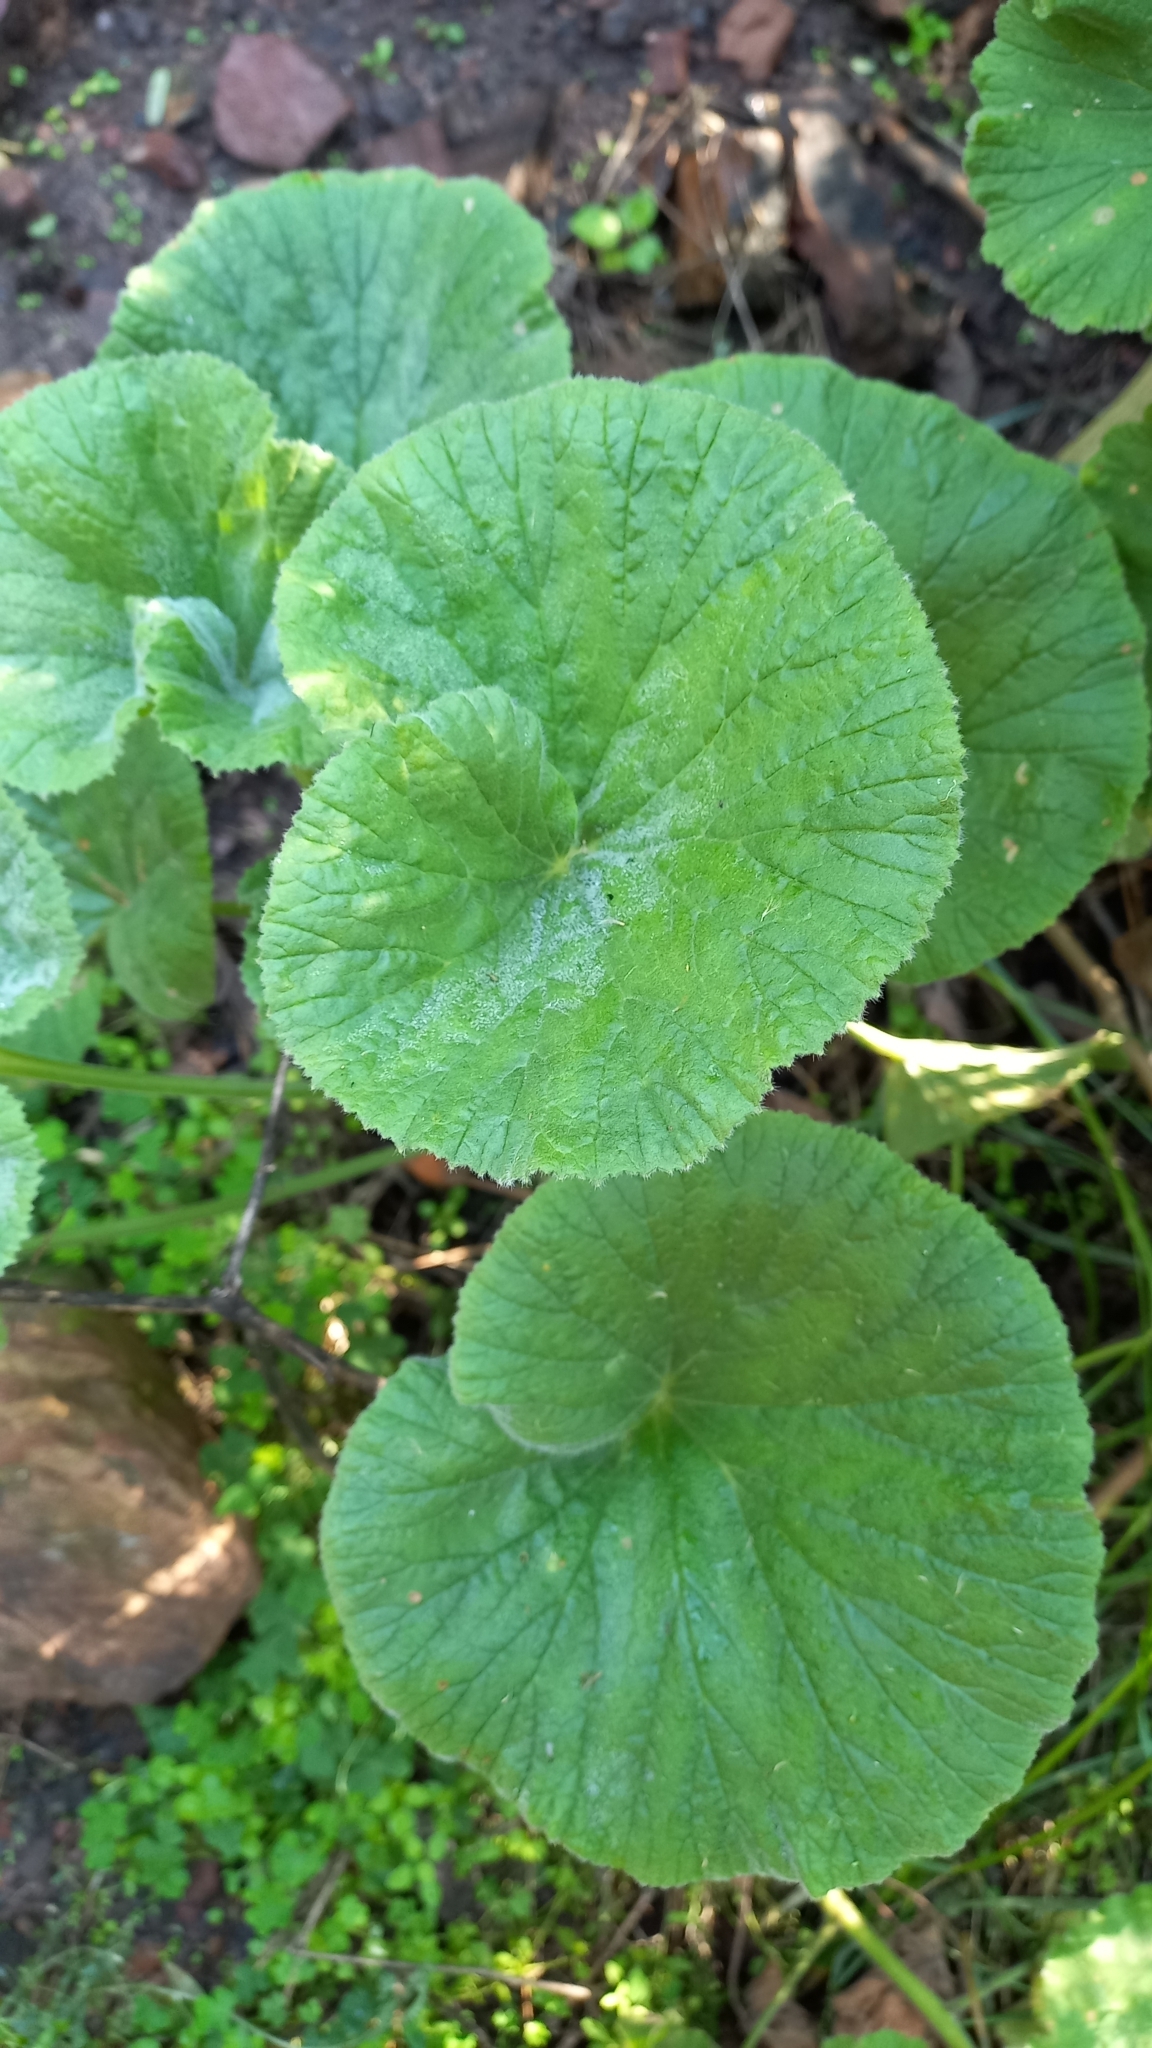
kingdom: Plantae
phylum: Tracheophyta
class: Magnoliopsida
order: Gunnerales
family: Gunneraceae
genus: Gunnera
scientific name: Gunnera perpensa
